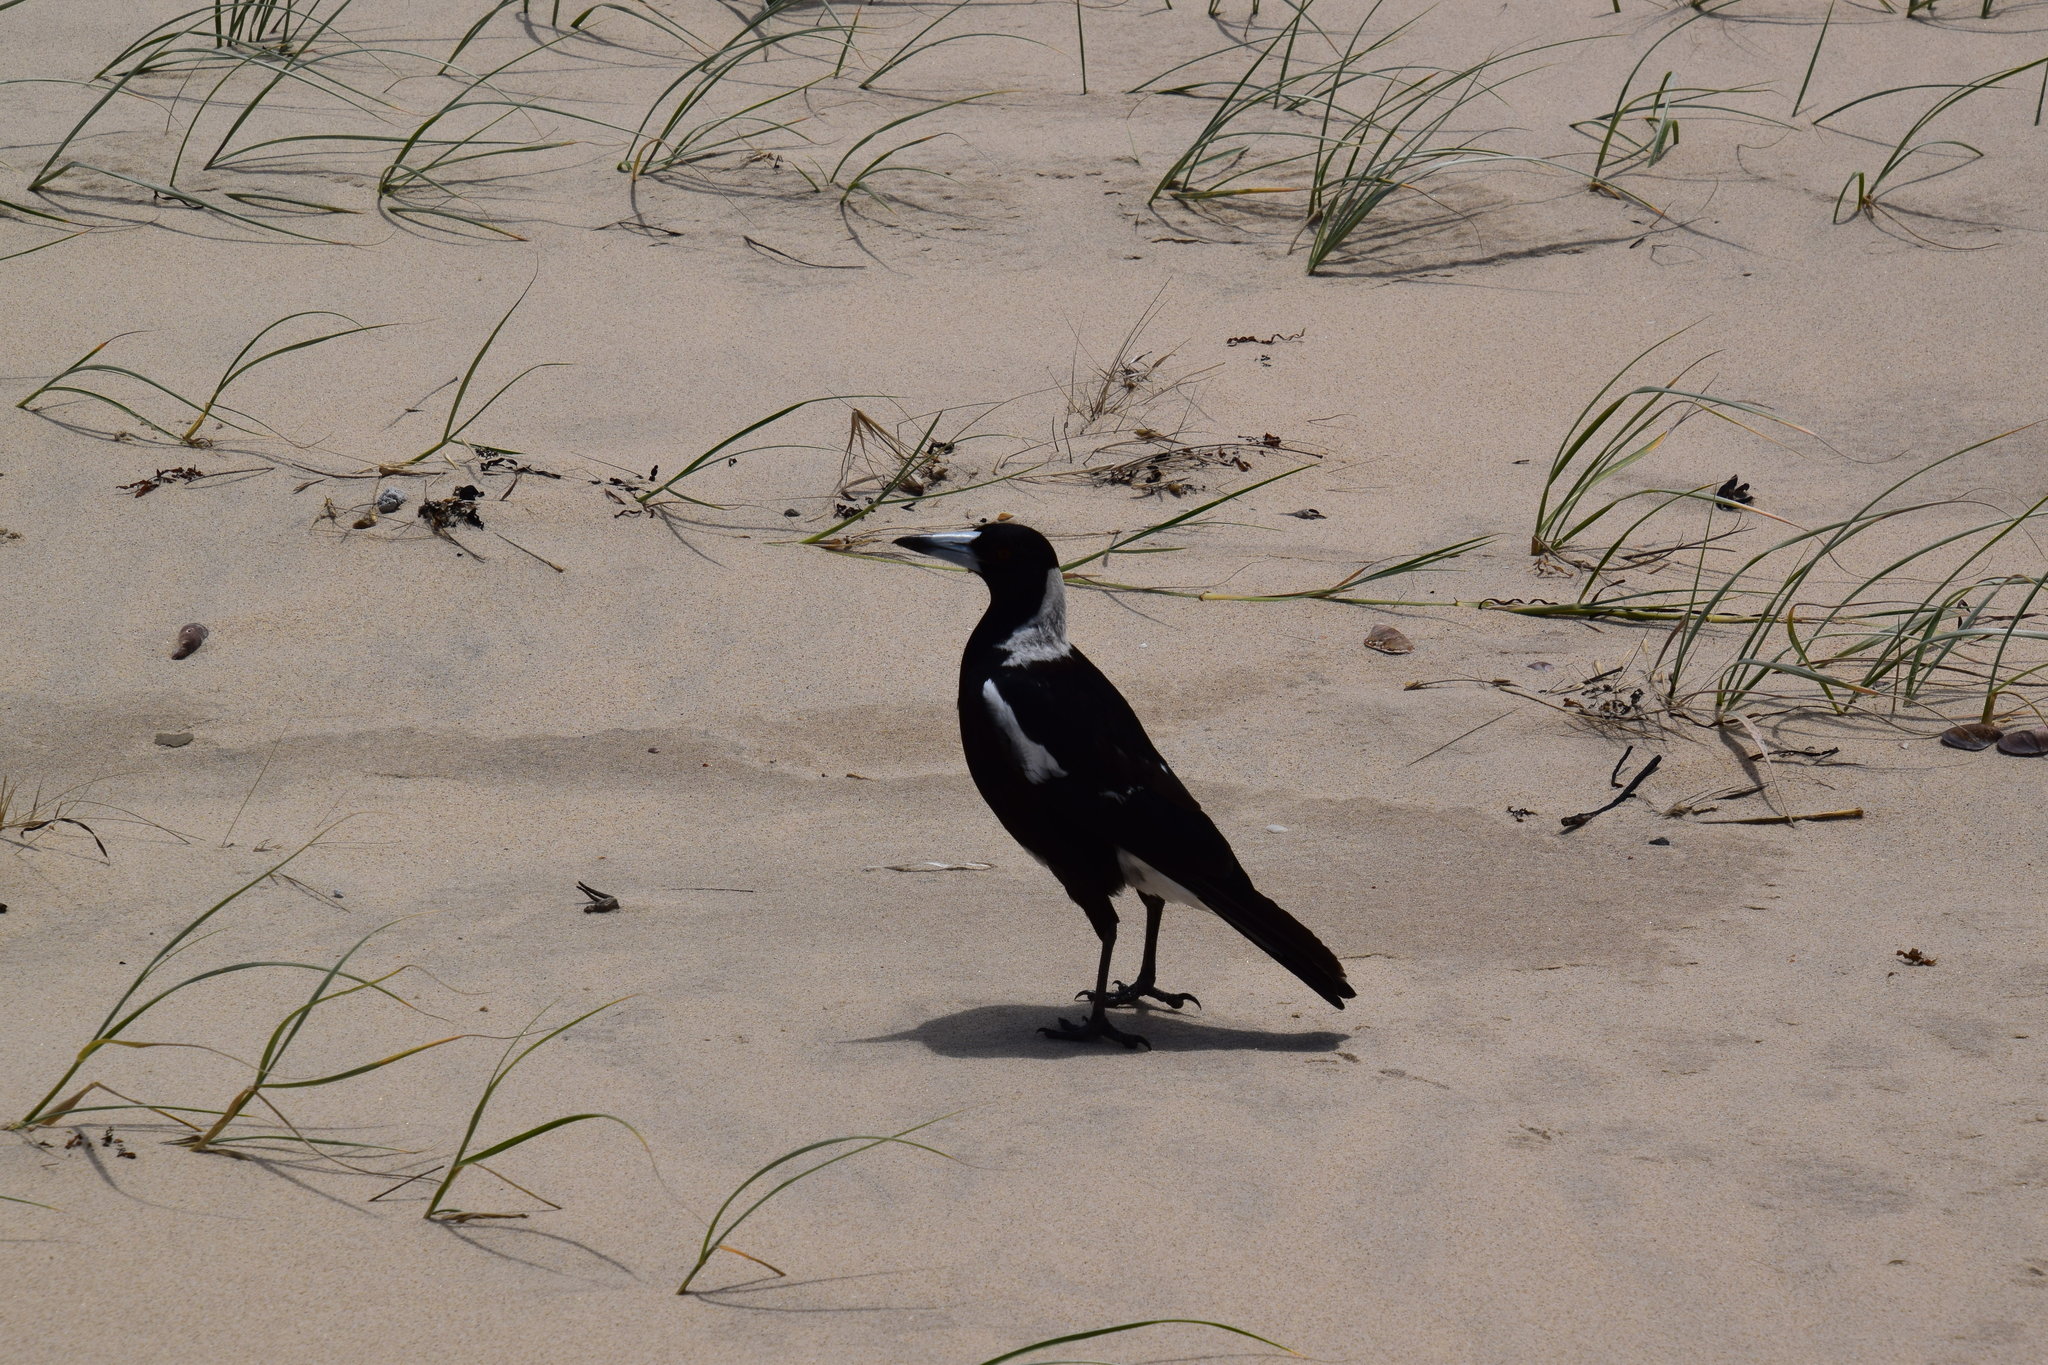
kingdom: Animalia
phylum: Chordata
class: Aves
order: Passeriformes
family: Cracticidae
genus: Gymnorhina
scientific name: Gymnorhina tibicen
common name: Australian magpie
